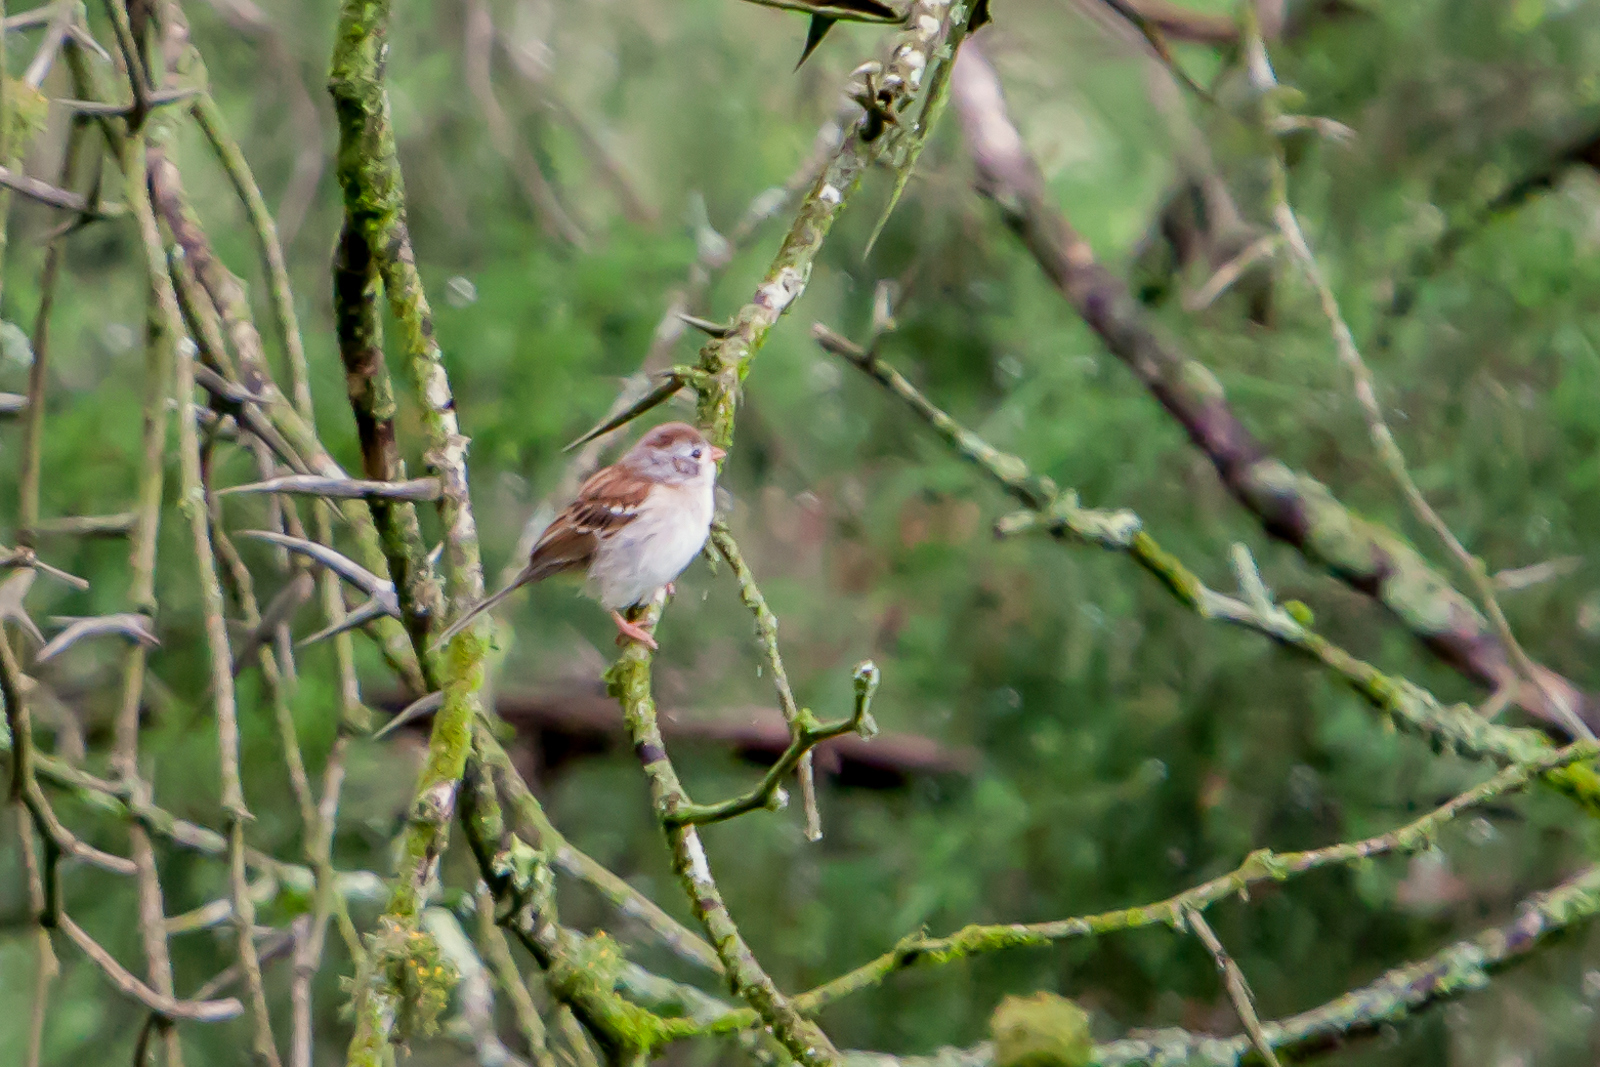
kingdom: Animalia
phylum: Chordata
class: Aves
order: Passeriformes
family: Passerellidae
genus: Spizella
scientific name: Spizella pusilla
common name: Field sparrow
